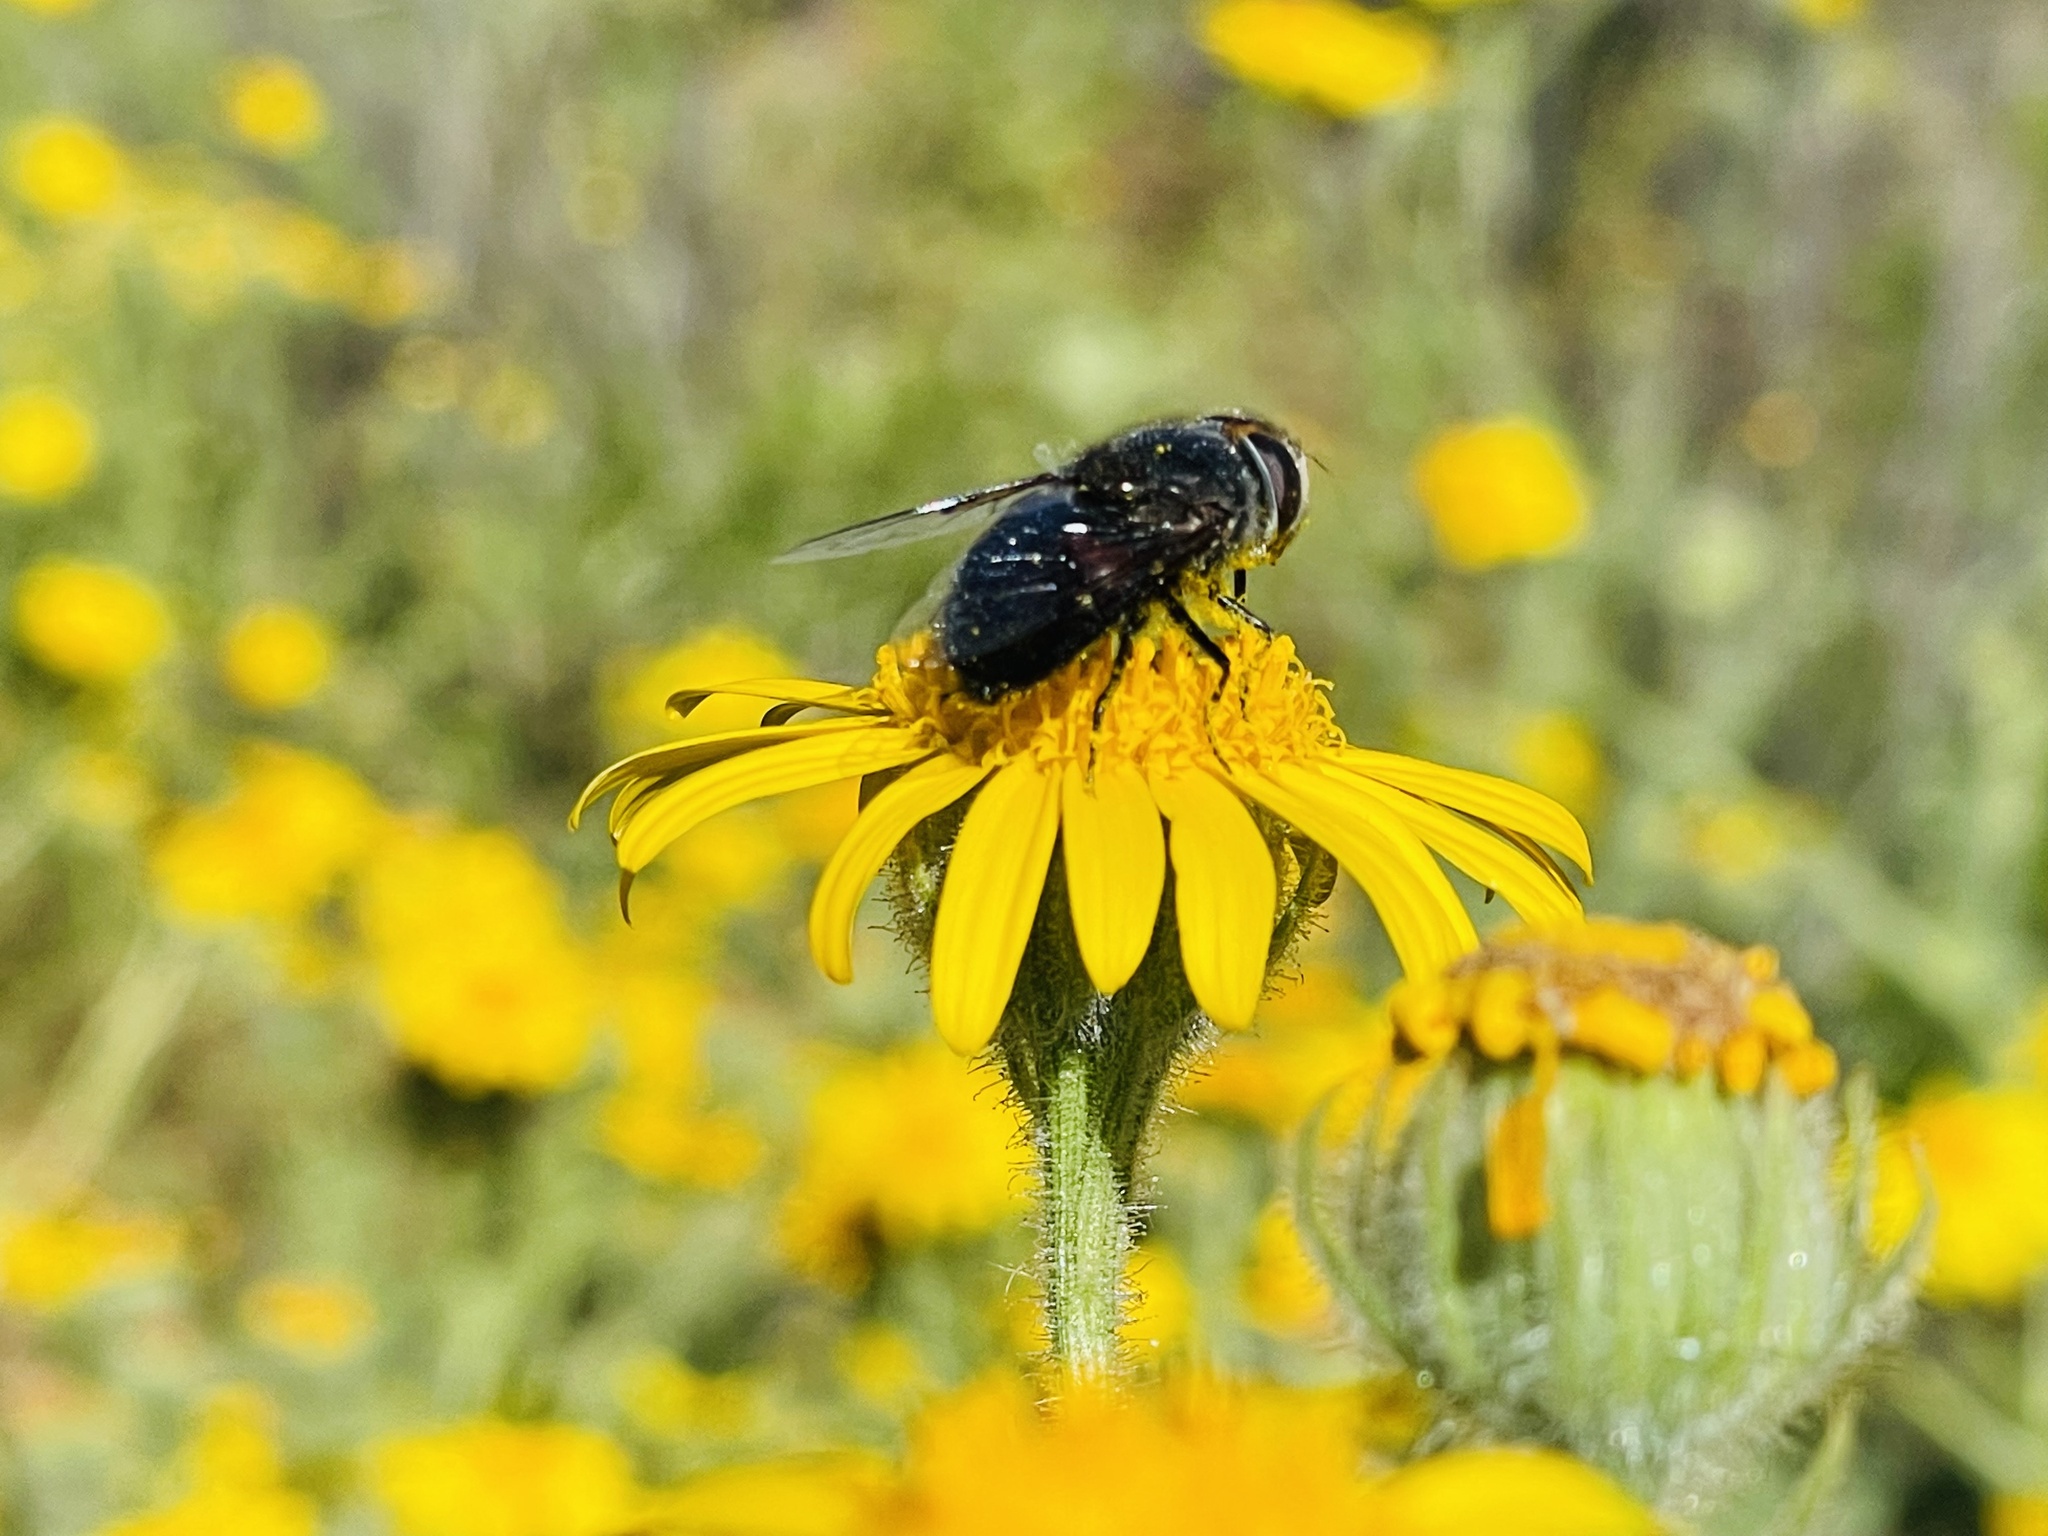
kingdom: Animalia
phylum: Arthropoda
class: Insecta
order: Diptera
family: Syrphidae
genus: Copestylum
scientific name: Copestylum scutellatum
